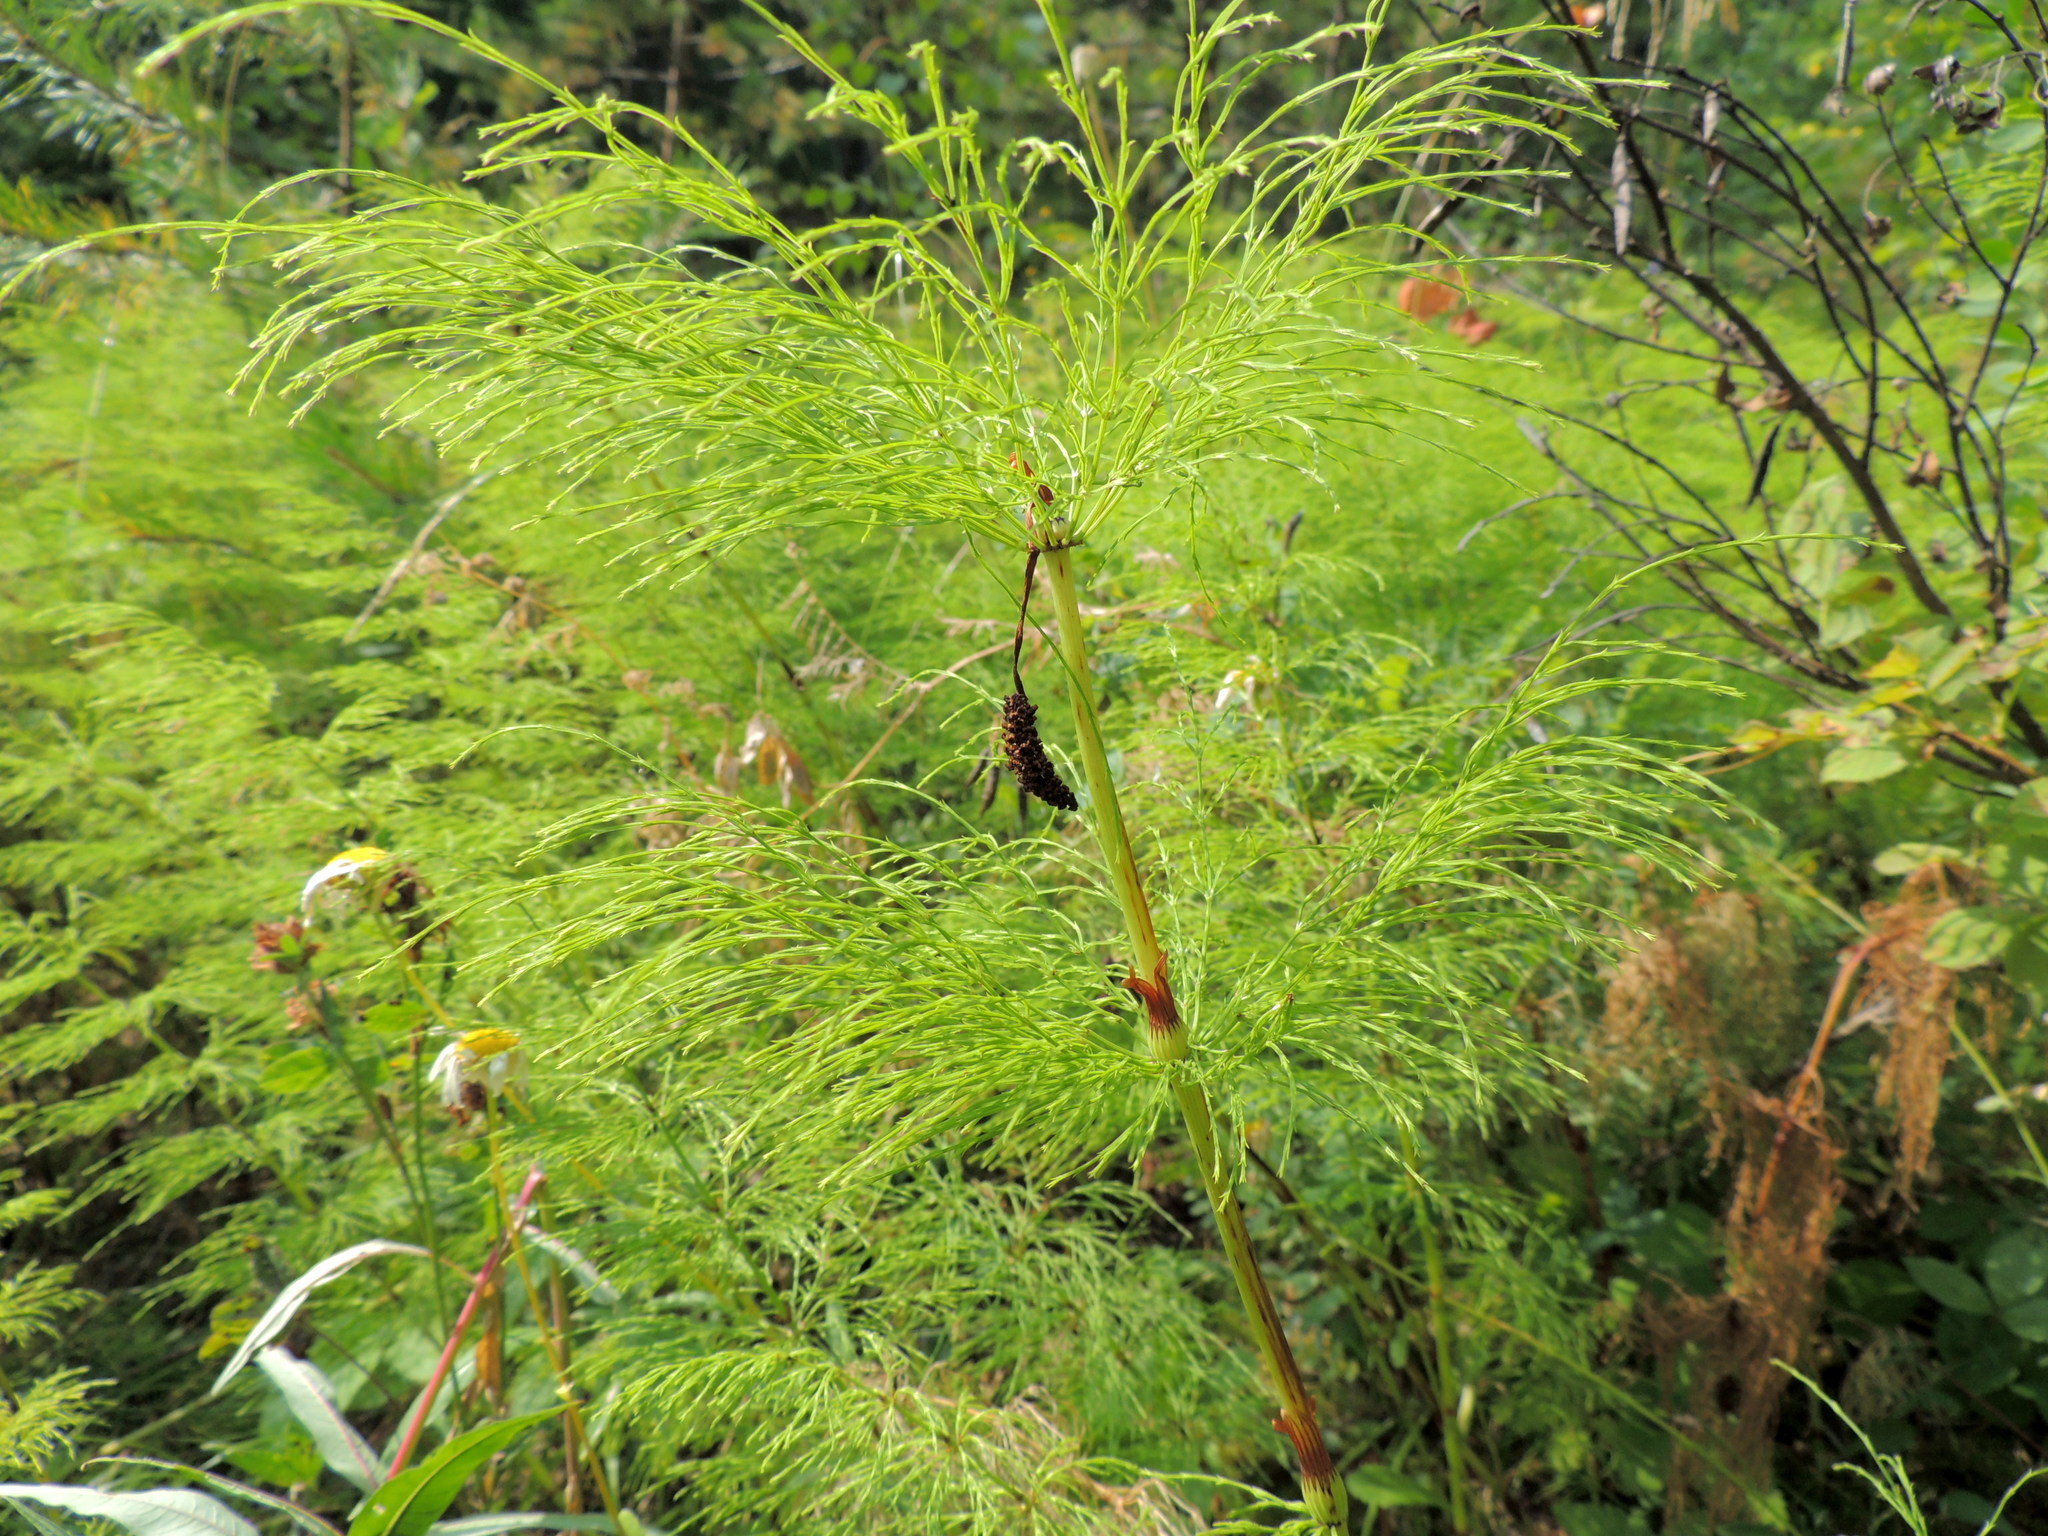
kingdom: Plantae
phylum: Tracheophyta
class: Polypodiopsida
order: Equisetales
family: Equisetaceae
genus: Equisetum
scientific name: Equisetum sylvaticum
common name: Wood horsetail
